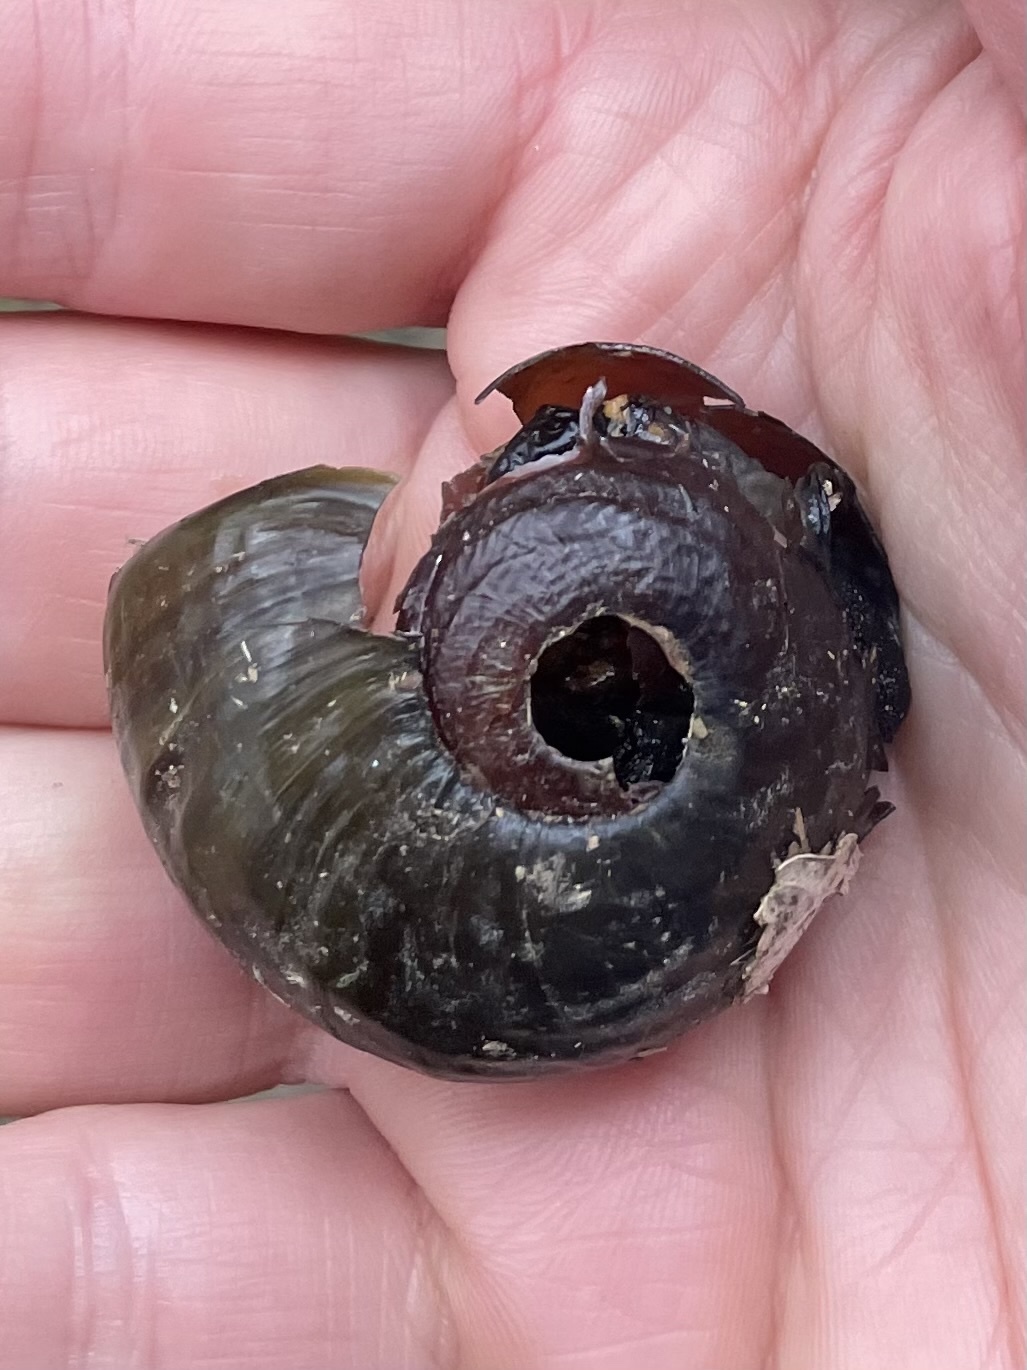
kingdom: Animalia
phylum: Mollusca
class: Gastropoda
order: Stylommatophora
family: Rhytididae
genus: Paryphanta
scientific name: Paryphanta busbyi
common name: Kauri snail
